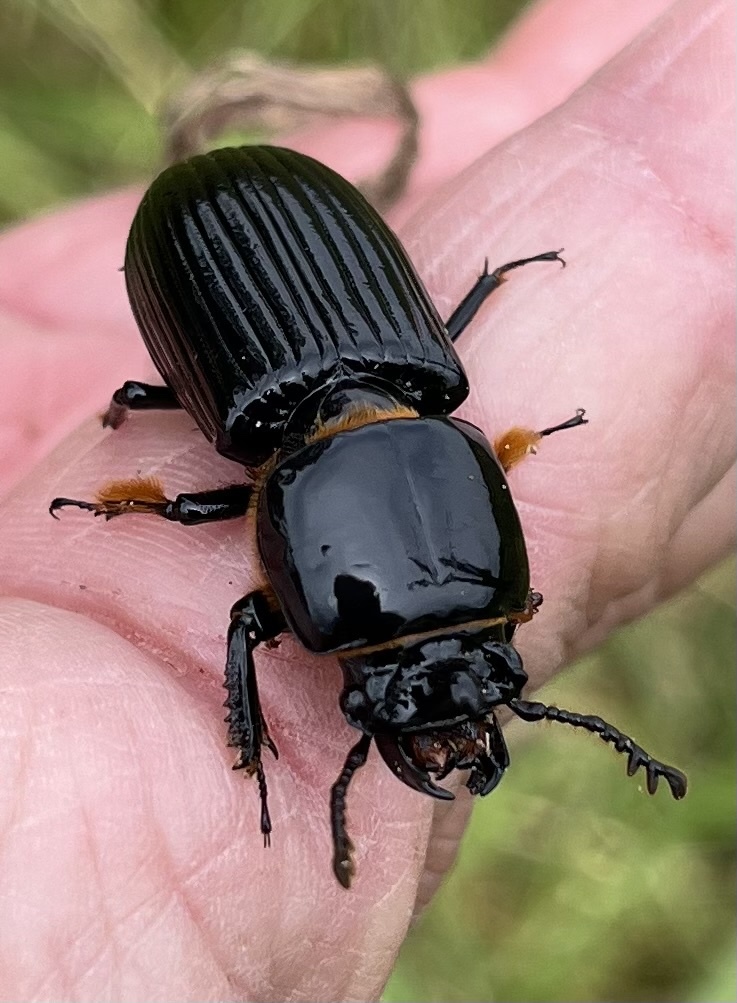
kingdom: Animalia
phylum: Arthropoda
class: Insecta
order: Coleoptera
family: Passalidae
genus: Odontotaenius
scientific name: Odontotaenius disjunctus
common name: Patent leather beetle
